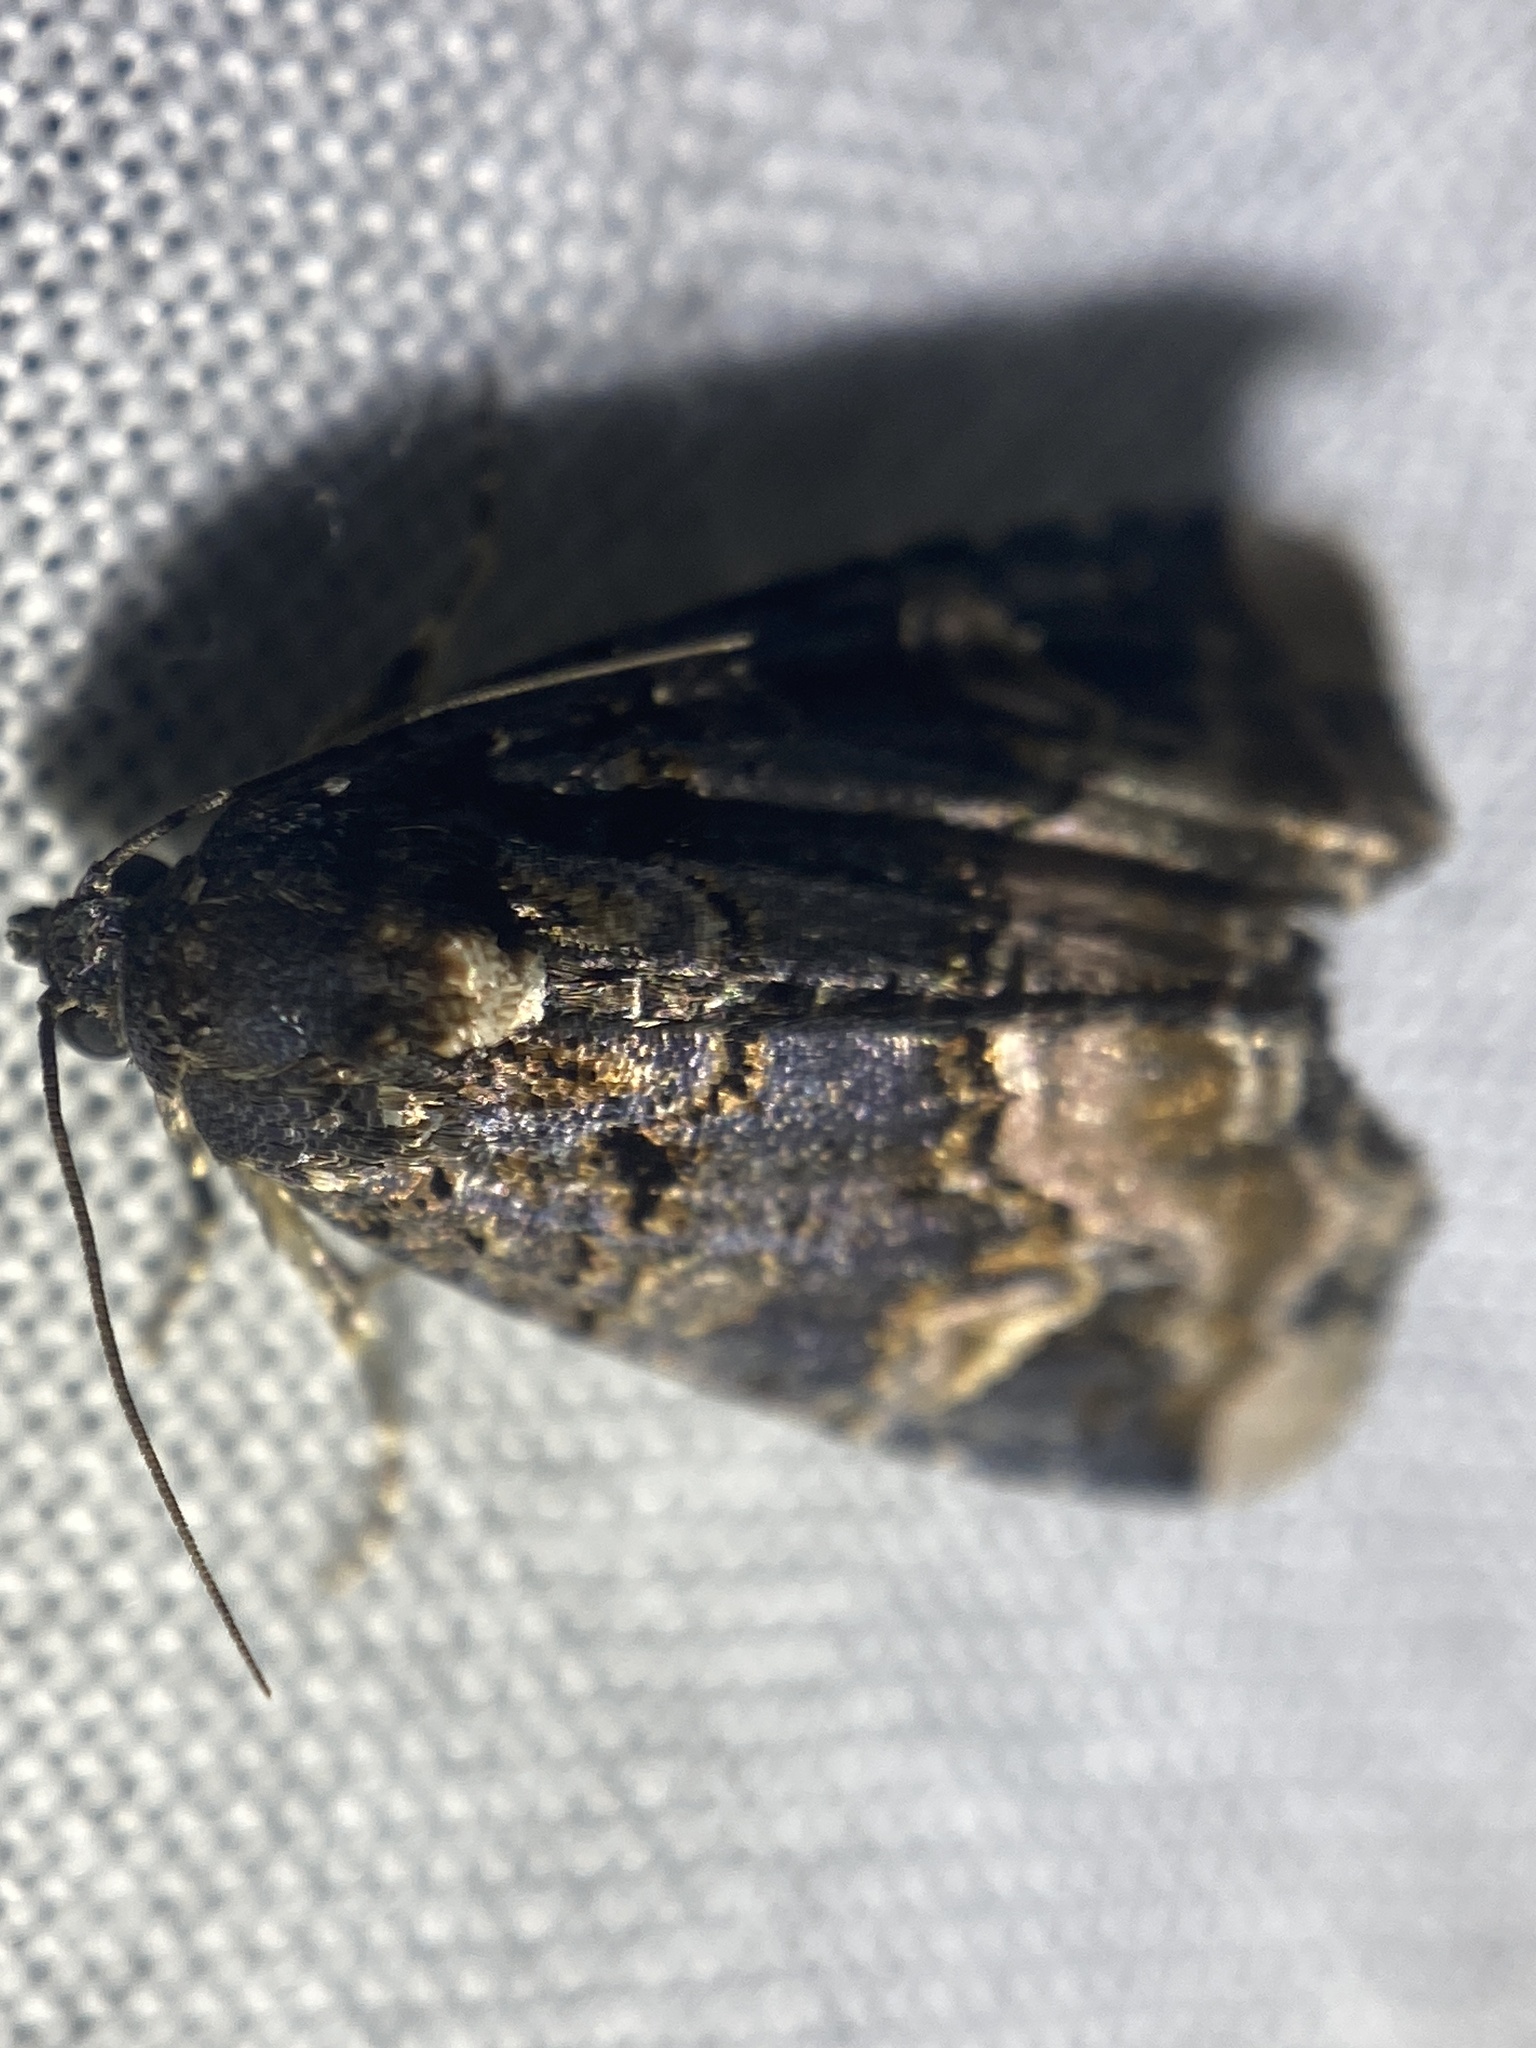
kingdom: Animalia
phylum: Arthropoda
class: Insecta
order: Lepidoptera
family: Noctuidae
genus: Homophoberia
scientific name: Homophoberia apicosa
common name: Black wedge-spot
